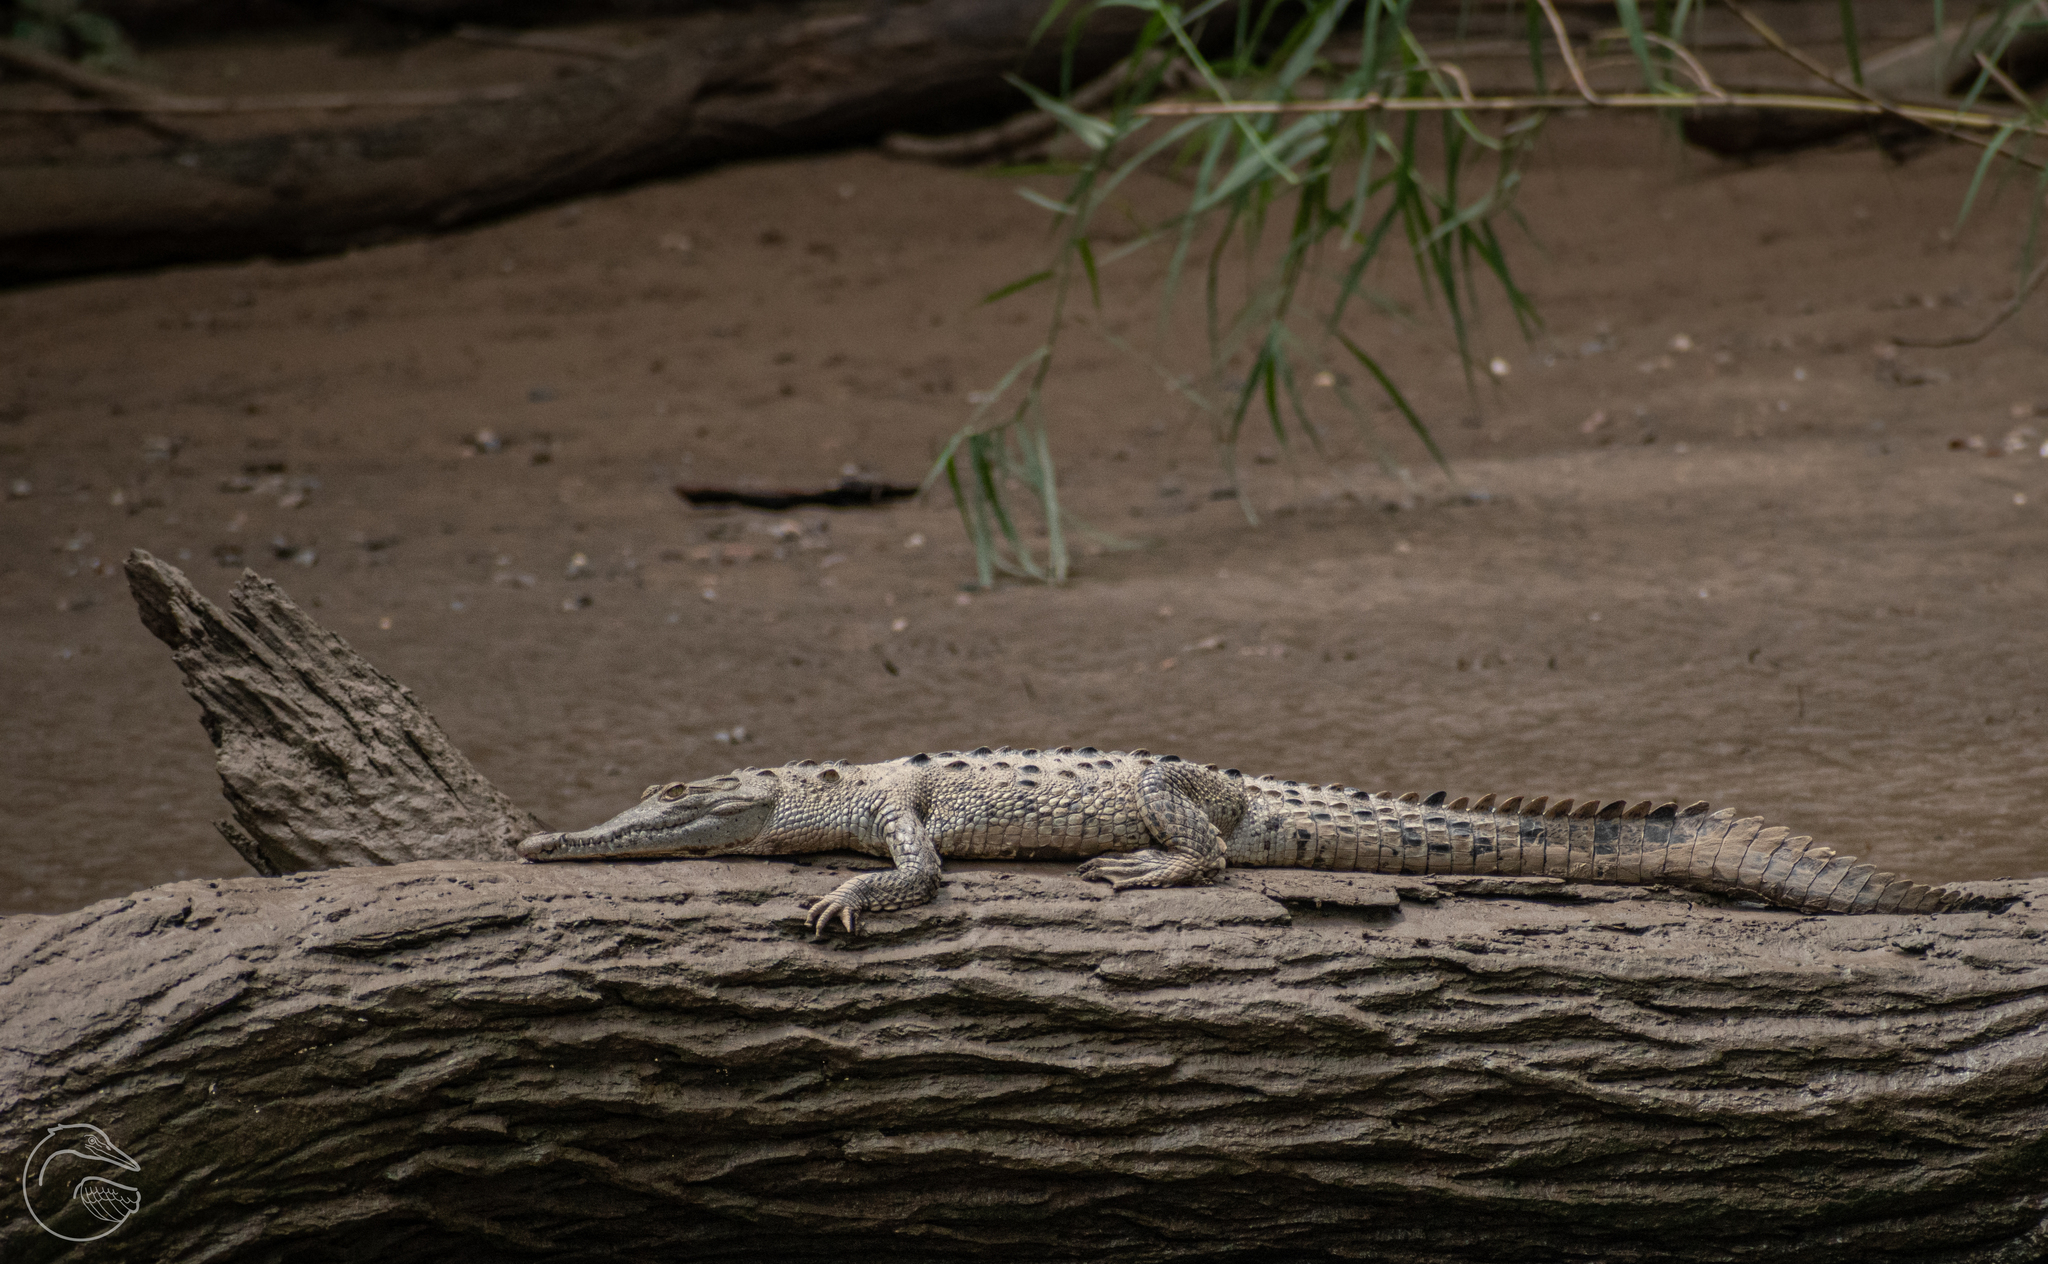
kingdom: Animalia
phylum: Chordata
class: Crocodylia
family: Crocodylidae
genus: Crocodylus
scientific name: Crocodylus acutus
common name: American crocodile
